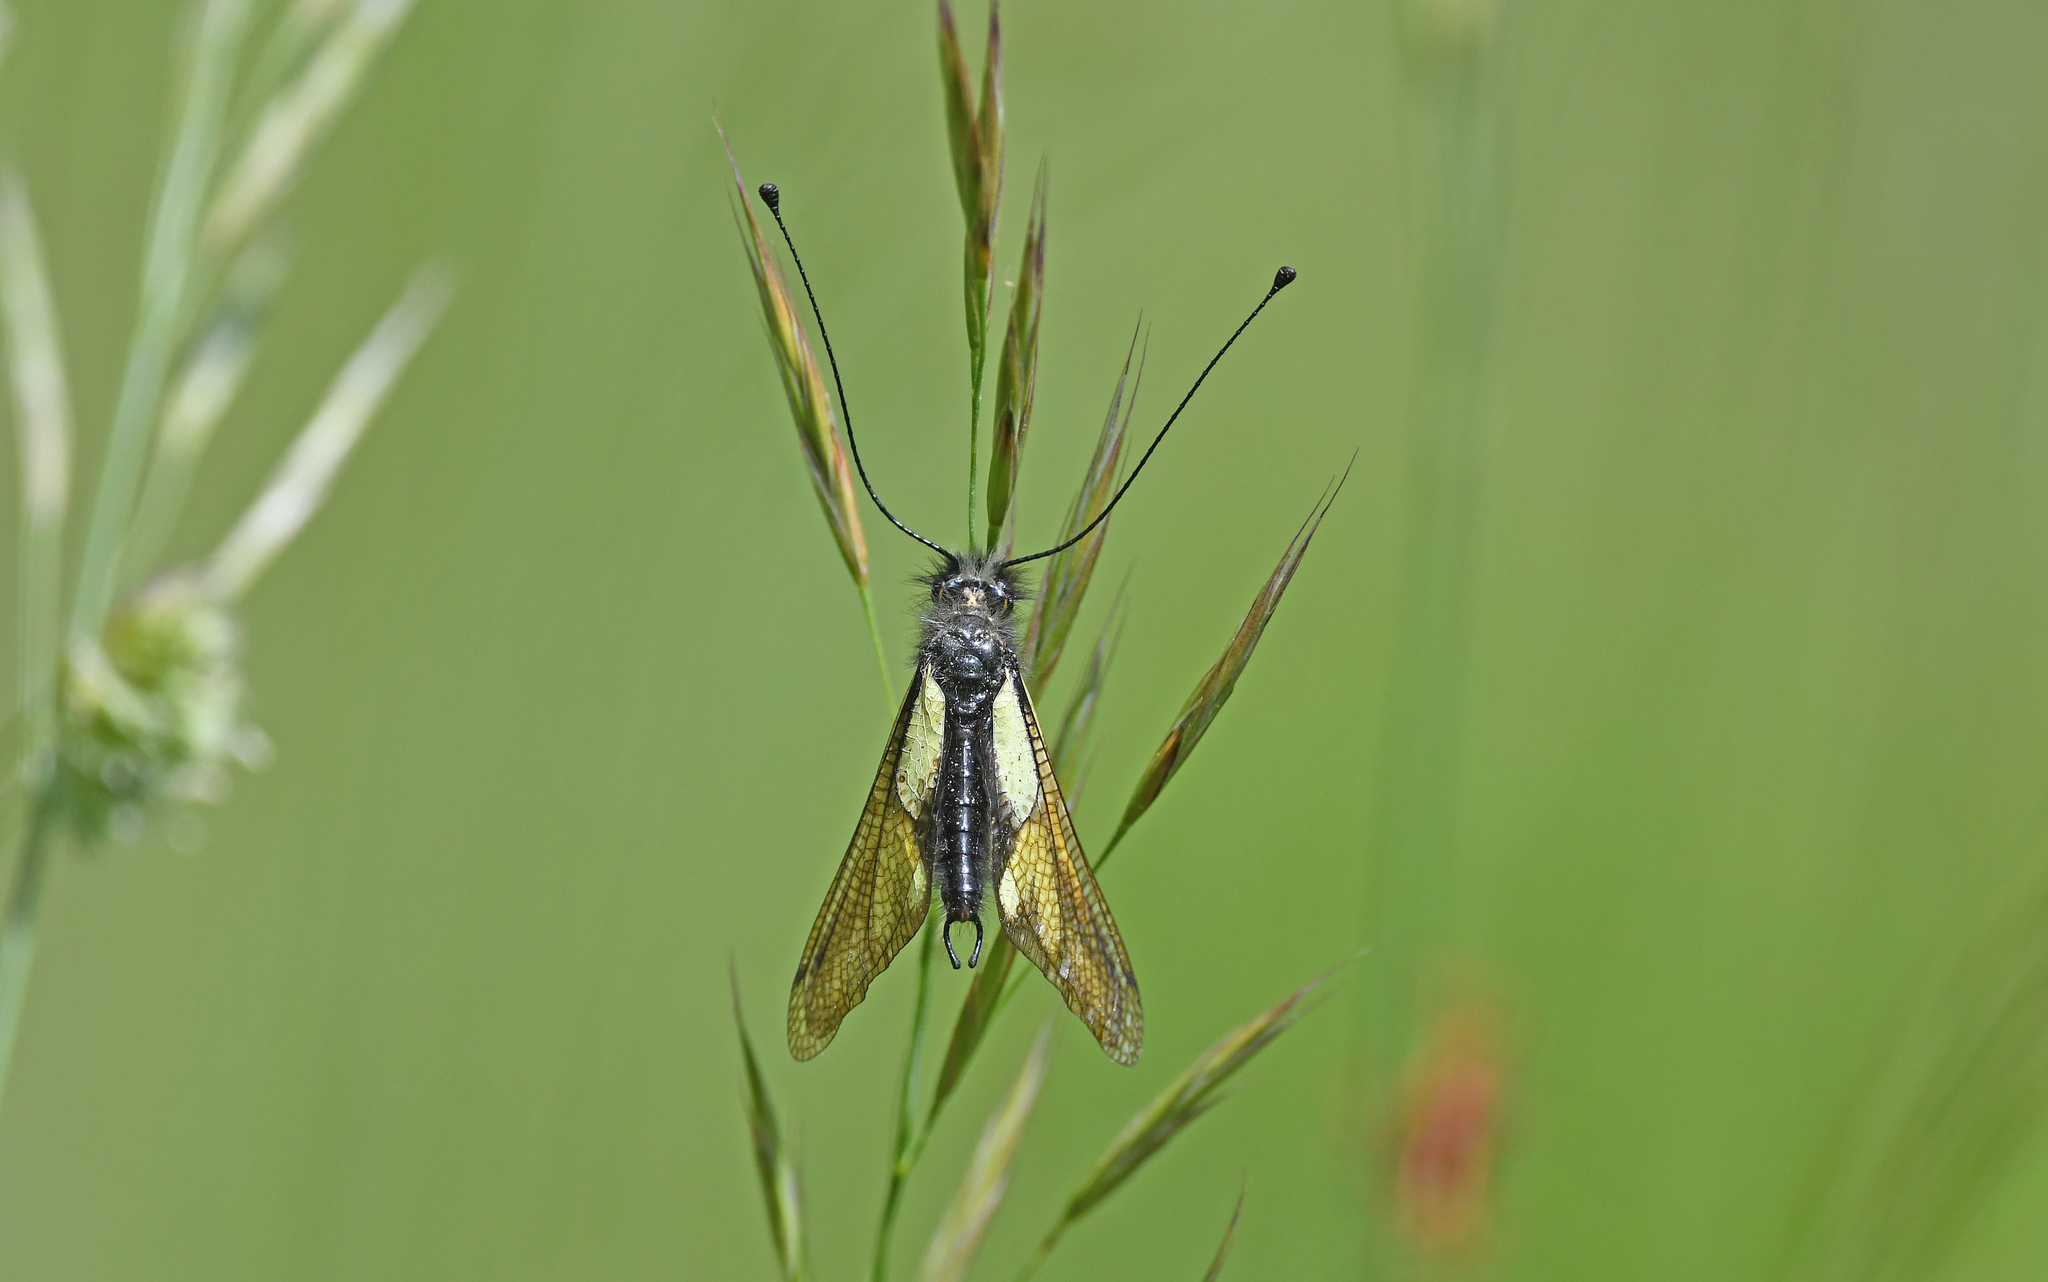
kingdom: Animalia
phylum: Arthropoda
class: Insecta
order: Neuroptera
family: Ascalaphidae
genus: Libelloides
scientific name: Libelloides coccajus
